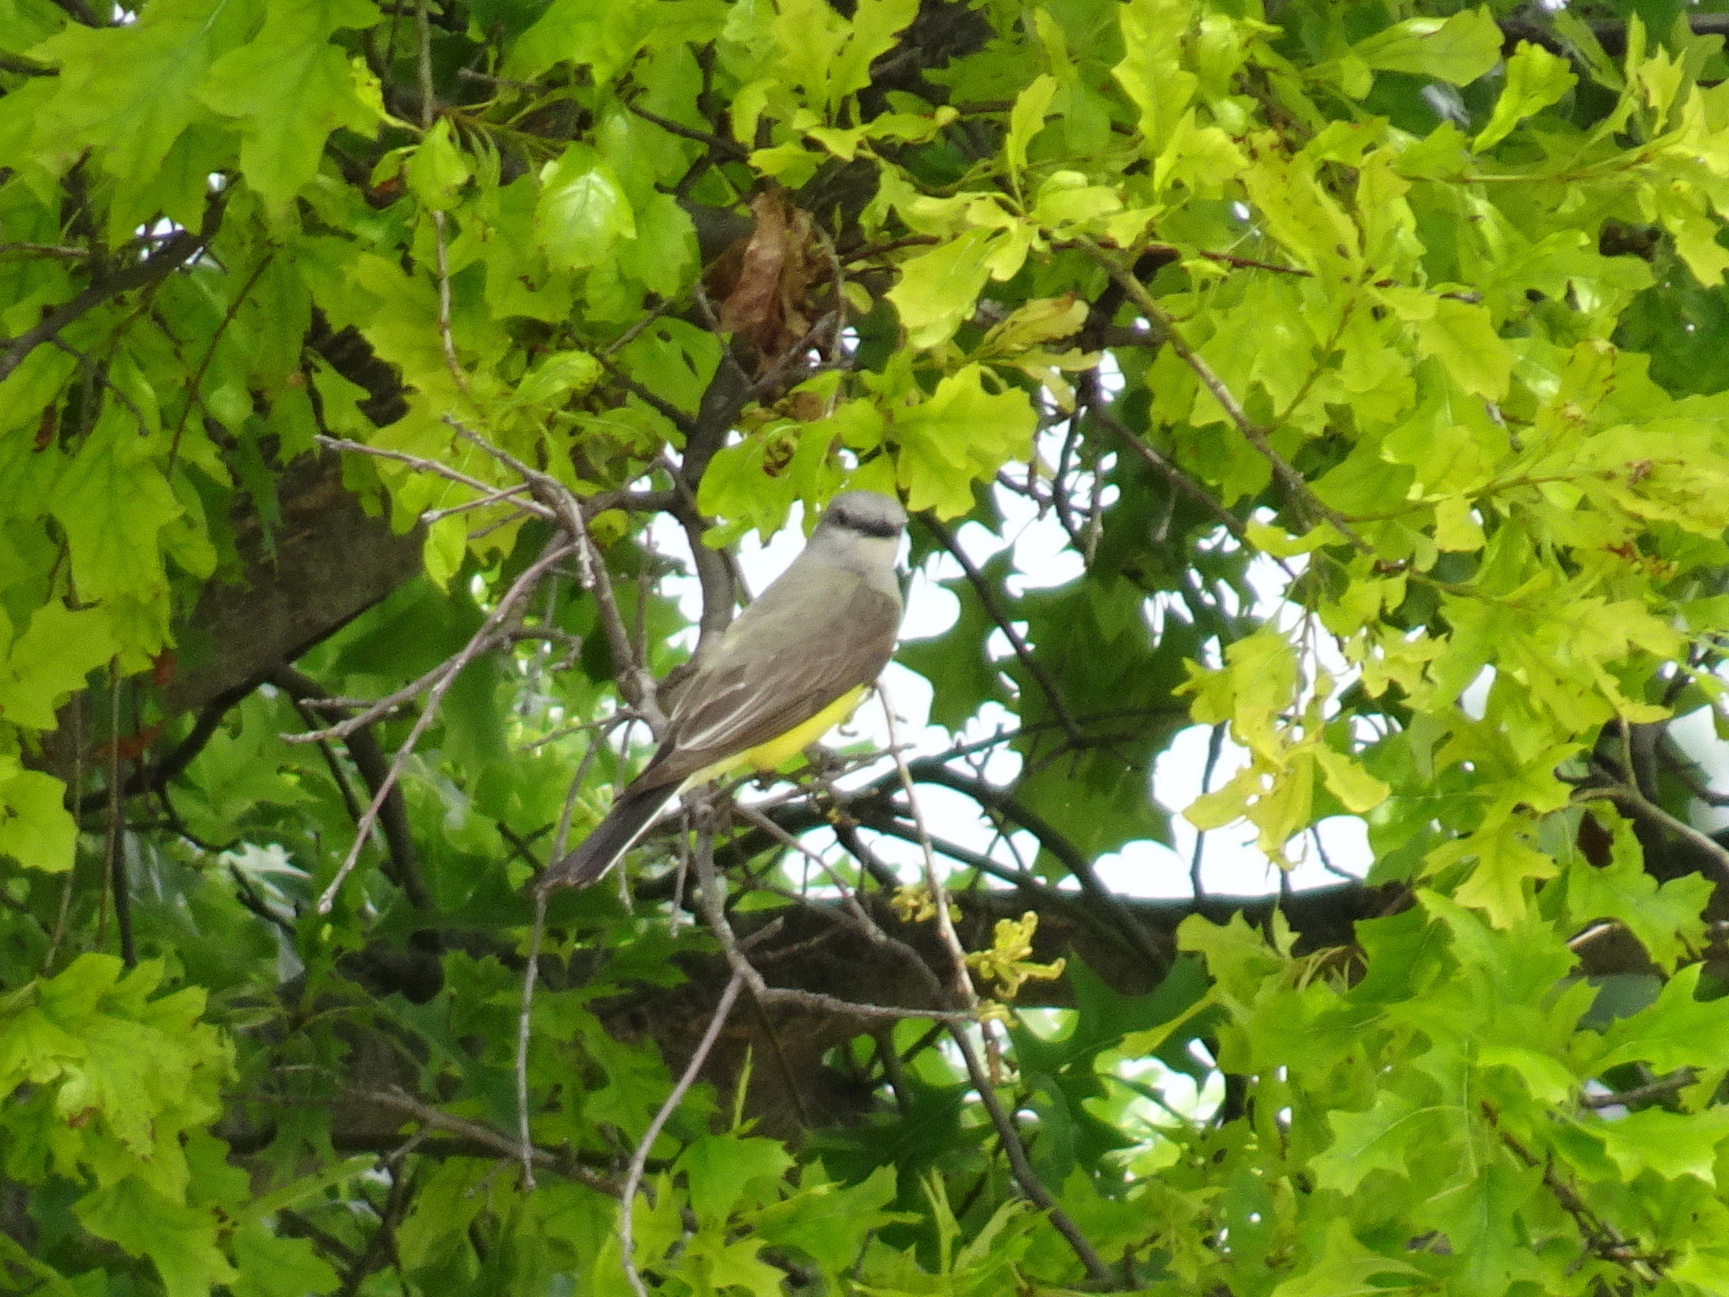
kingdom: Animalia
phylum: Chordata
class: Aves
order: Passeriformes
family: Tyrannidae
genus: Tyrannus
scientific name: Tyrannus verticalis
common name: Western kingbird
